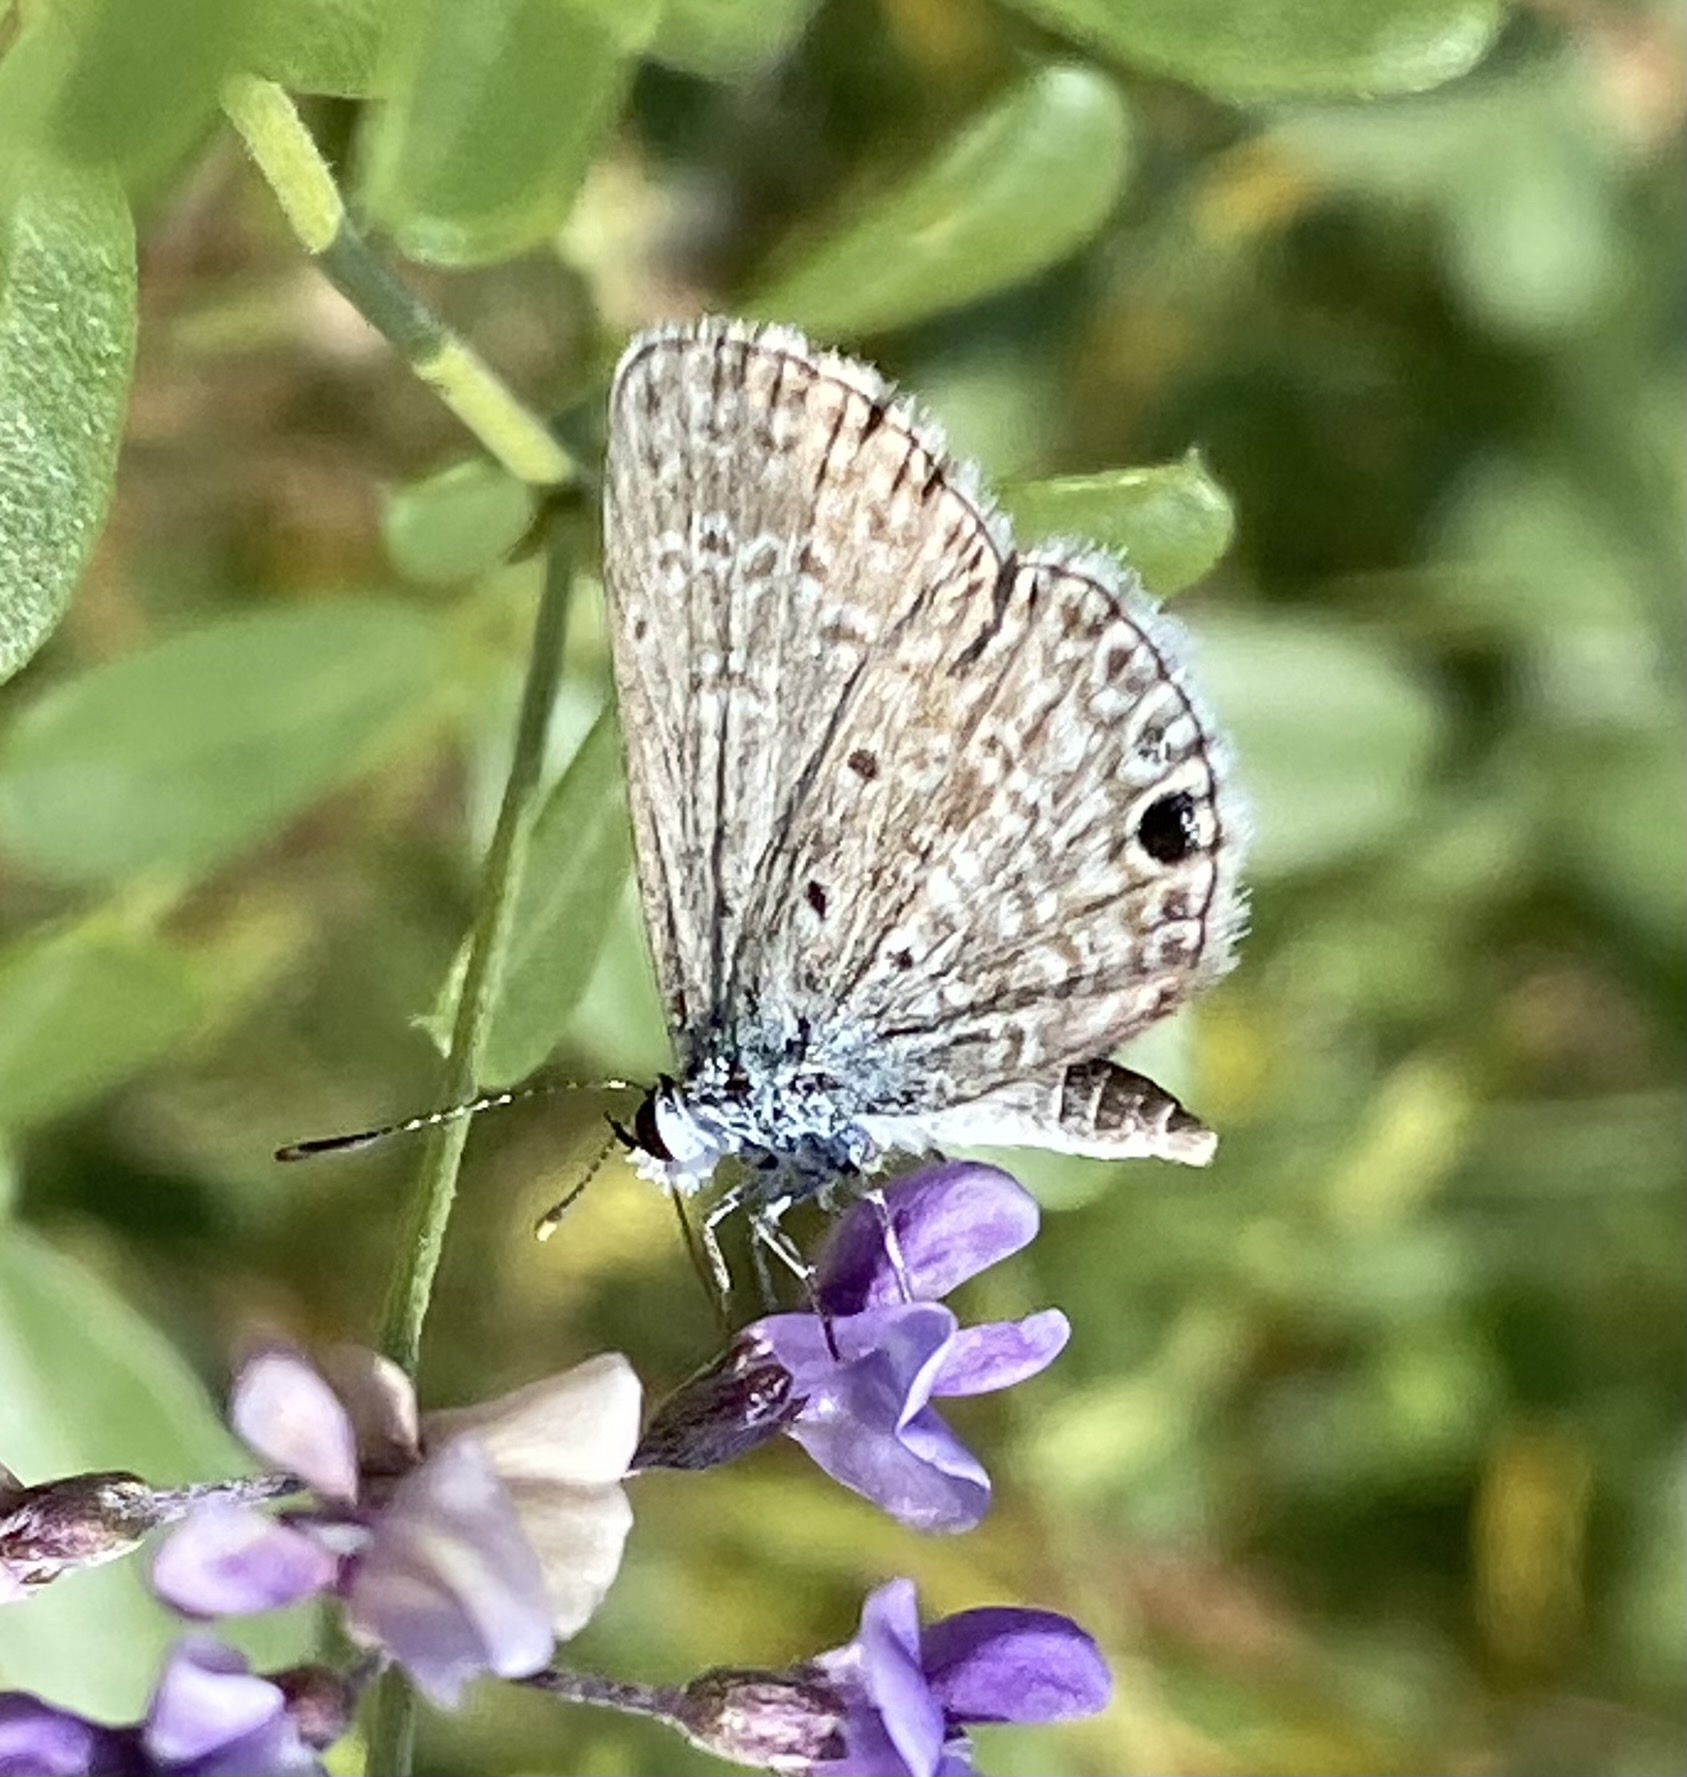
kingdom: Animalia
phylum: Arthropoda
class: Insecta
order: Lepidoptera
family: Lycaenidae
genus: Hemiargus
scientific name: Hemiargus ceraunus
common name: Ceraunus blue
